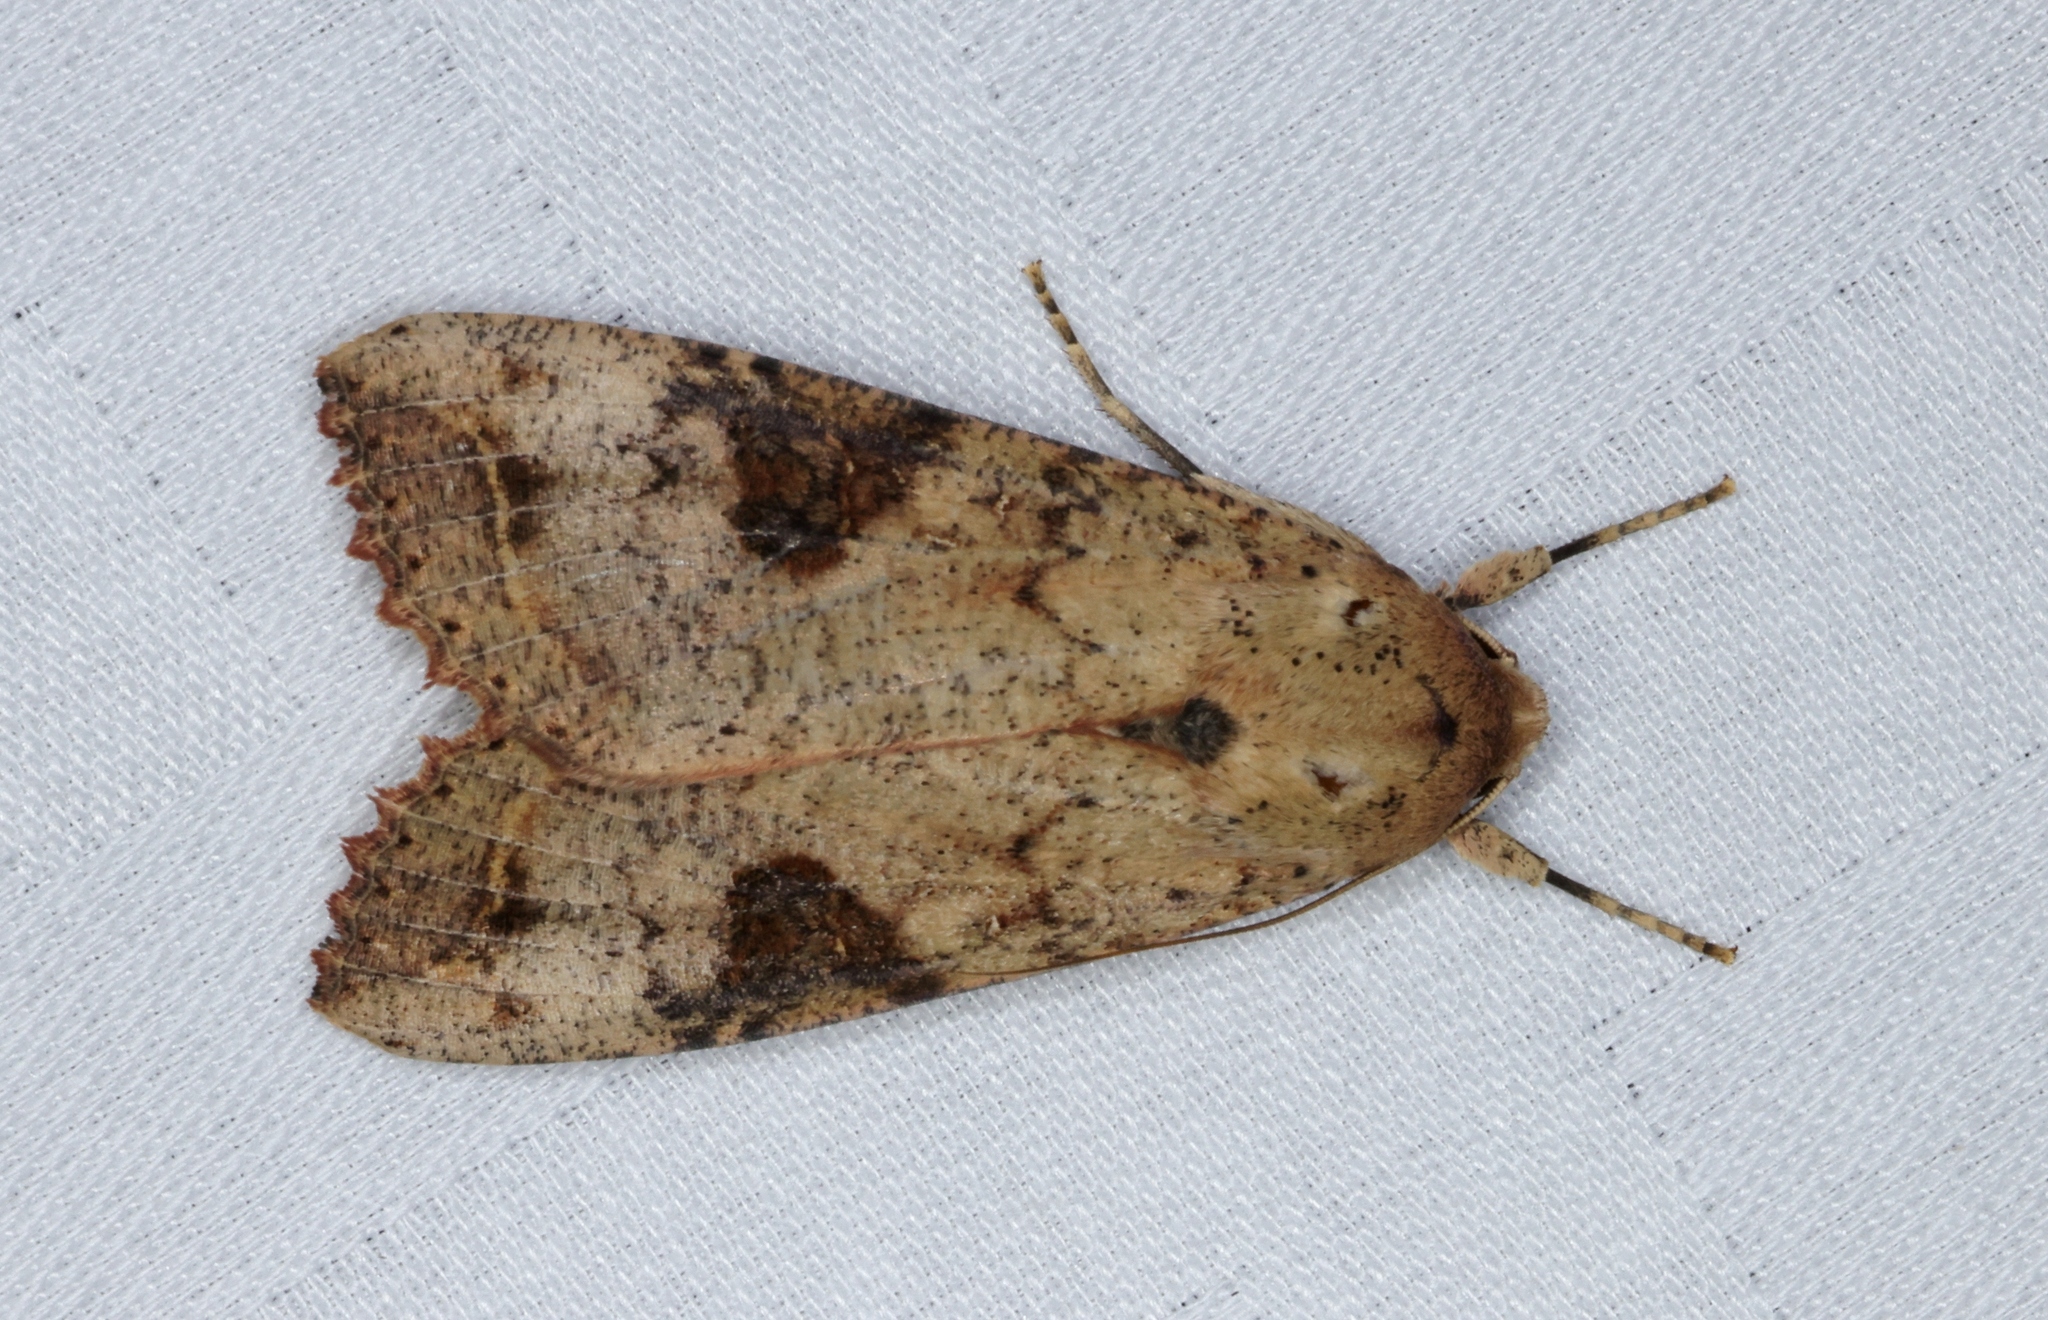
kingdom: Animalia
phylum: Arthropoda
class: Insecta
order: Lepidoptera
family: Noctuidae
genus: Tiracola
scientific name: Tiracola aureata
